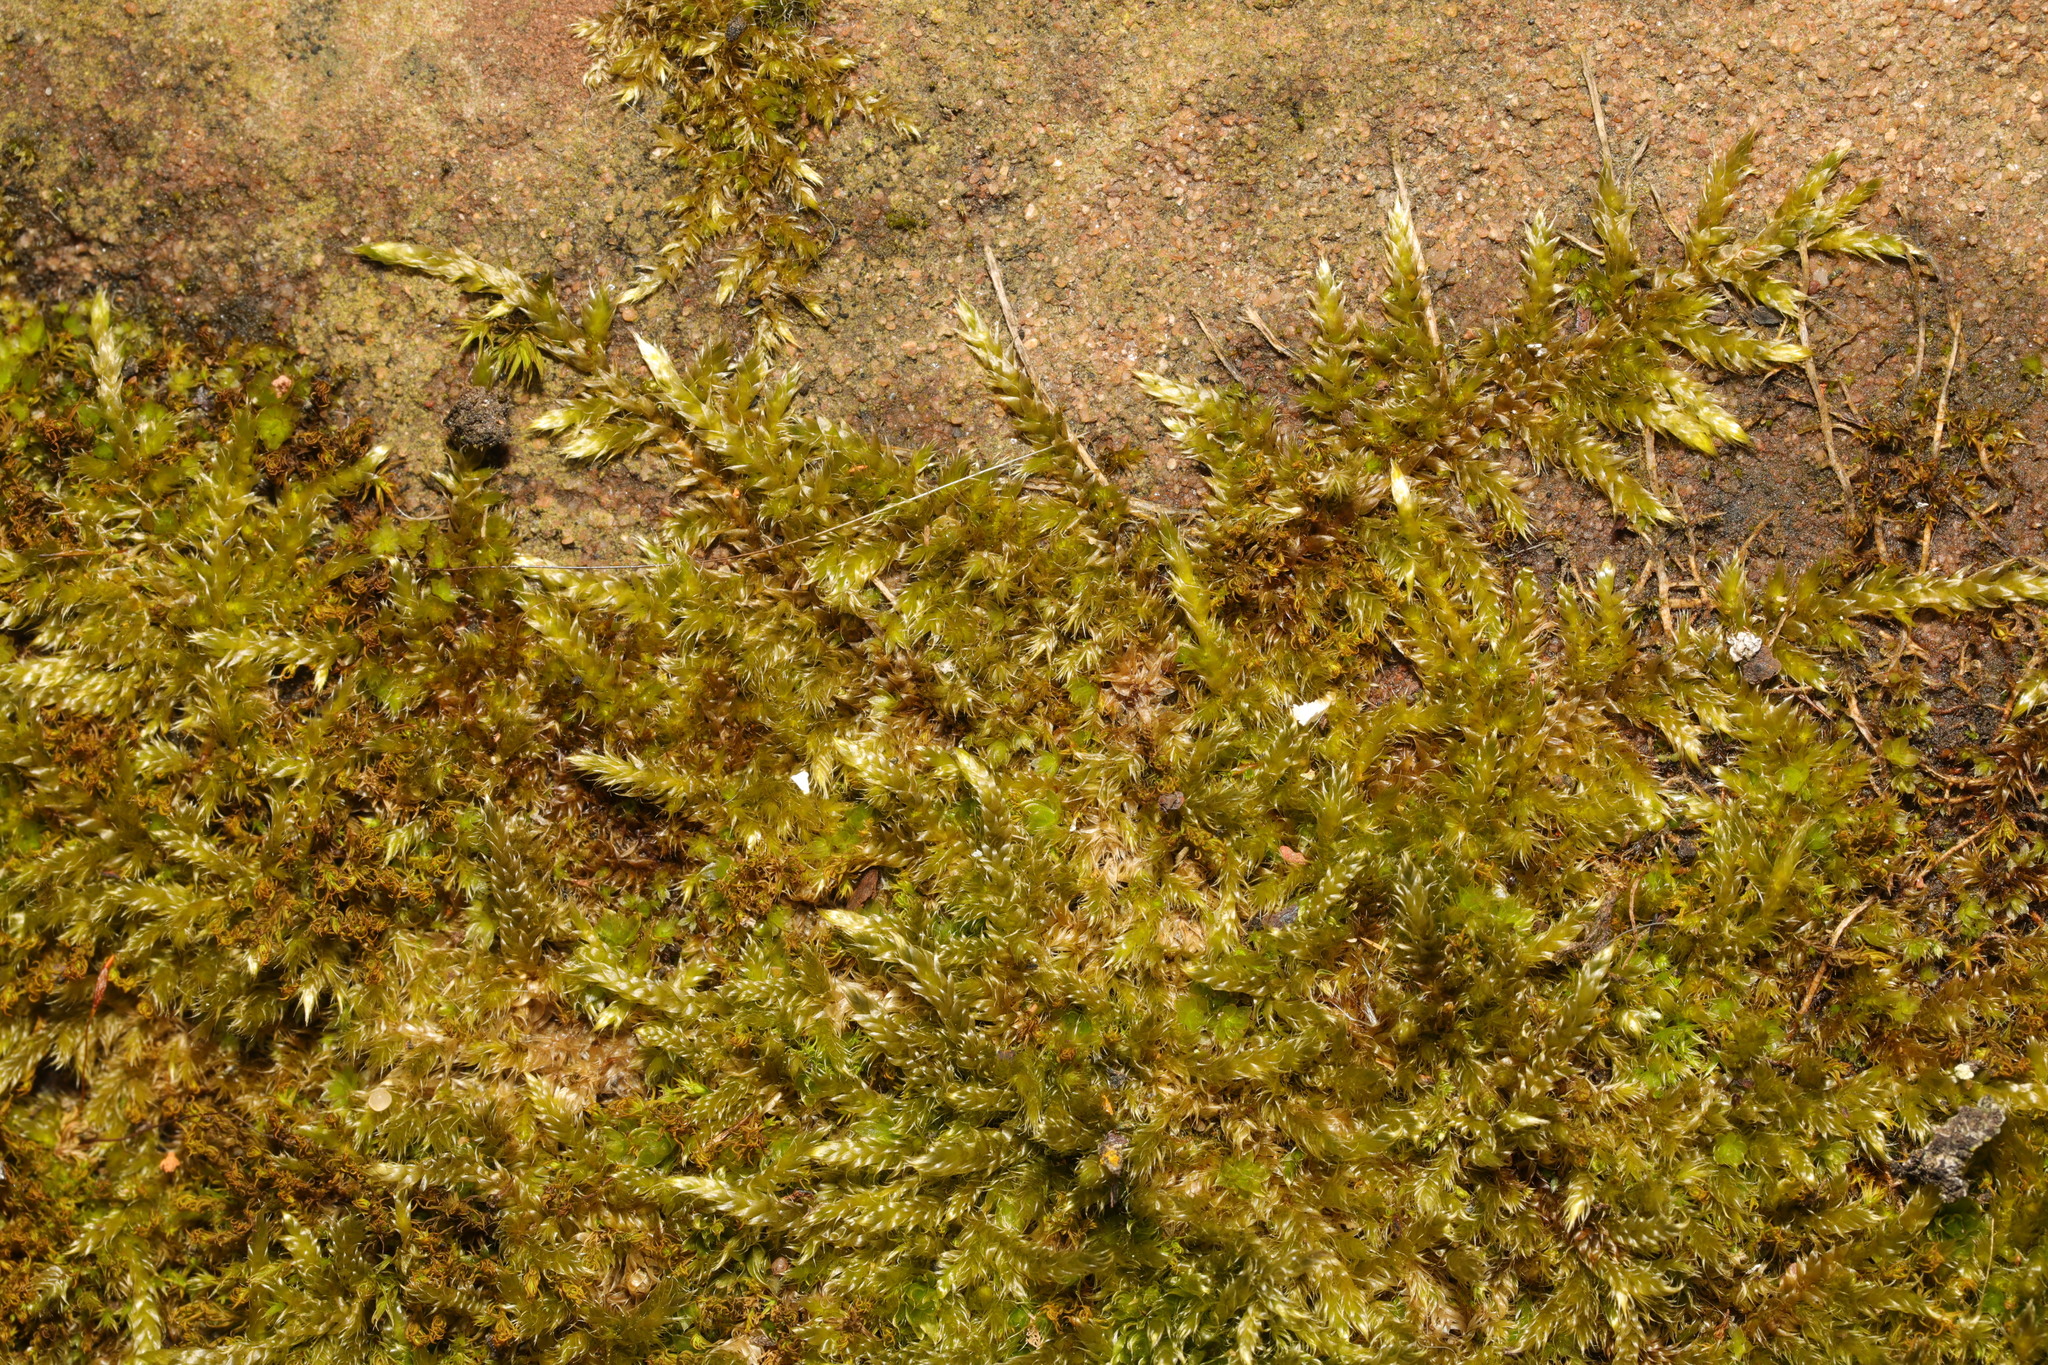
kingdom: Plantae
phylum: Bryophyta
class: Bryopsida
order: Hypnales
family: Brachytheciaceae
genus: Homalothecium
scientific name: Homalothecium sericeum
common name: Silky wall feather-moss
